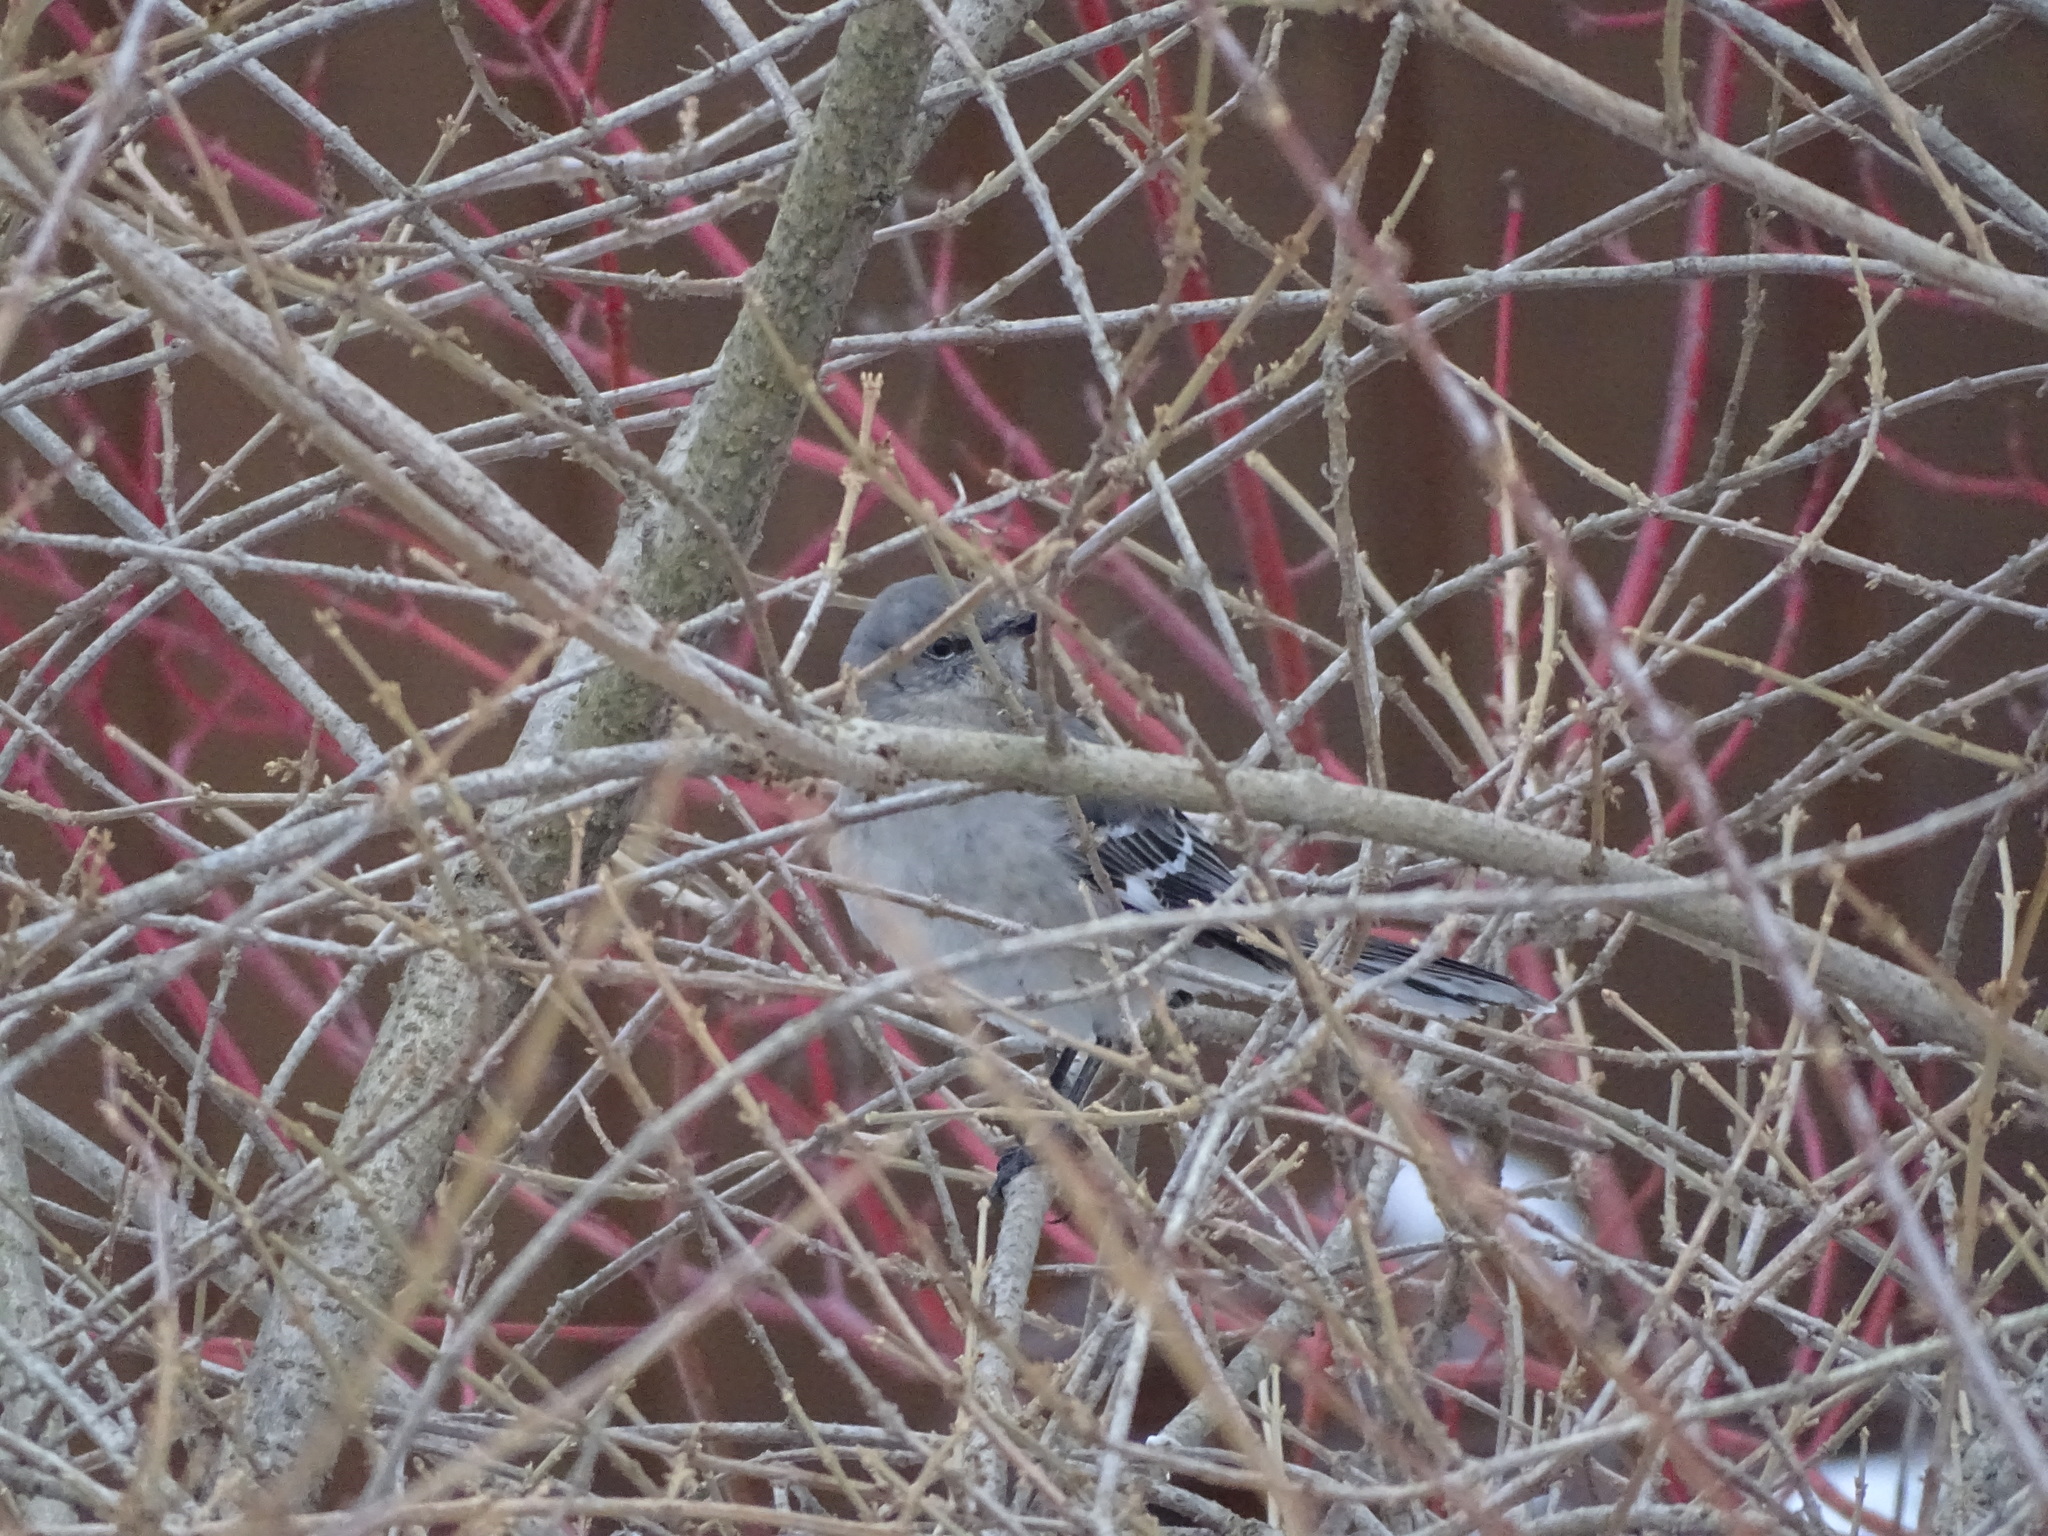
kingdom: Animalia
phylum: Chordata
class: Aves
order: Passeriformes
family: Mimidae
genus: Mimus
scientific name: Mimus polyglottos
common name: Northern mockingbird
